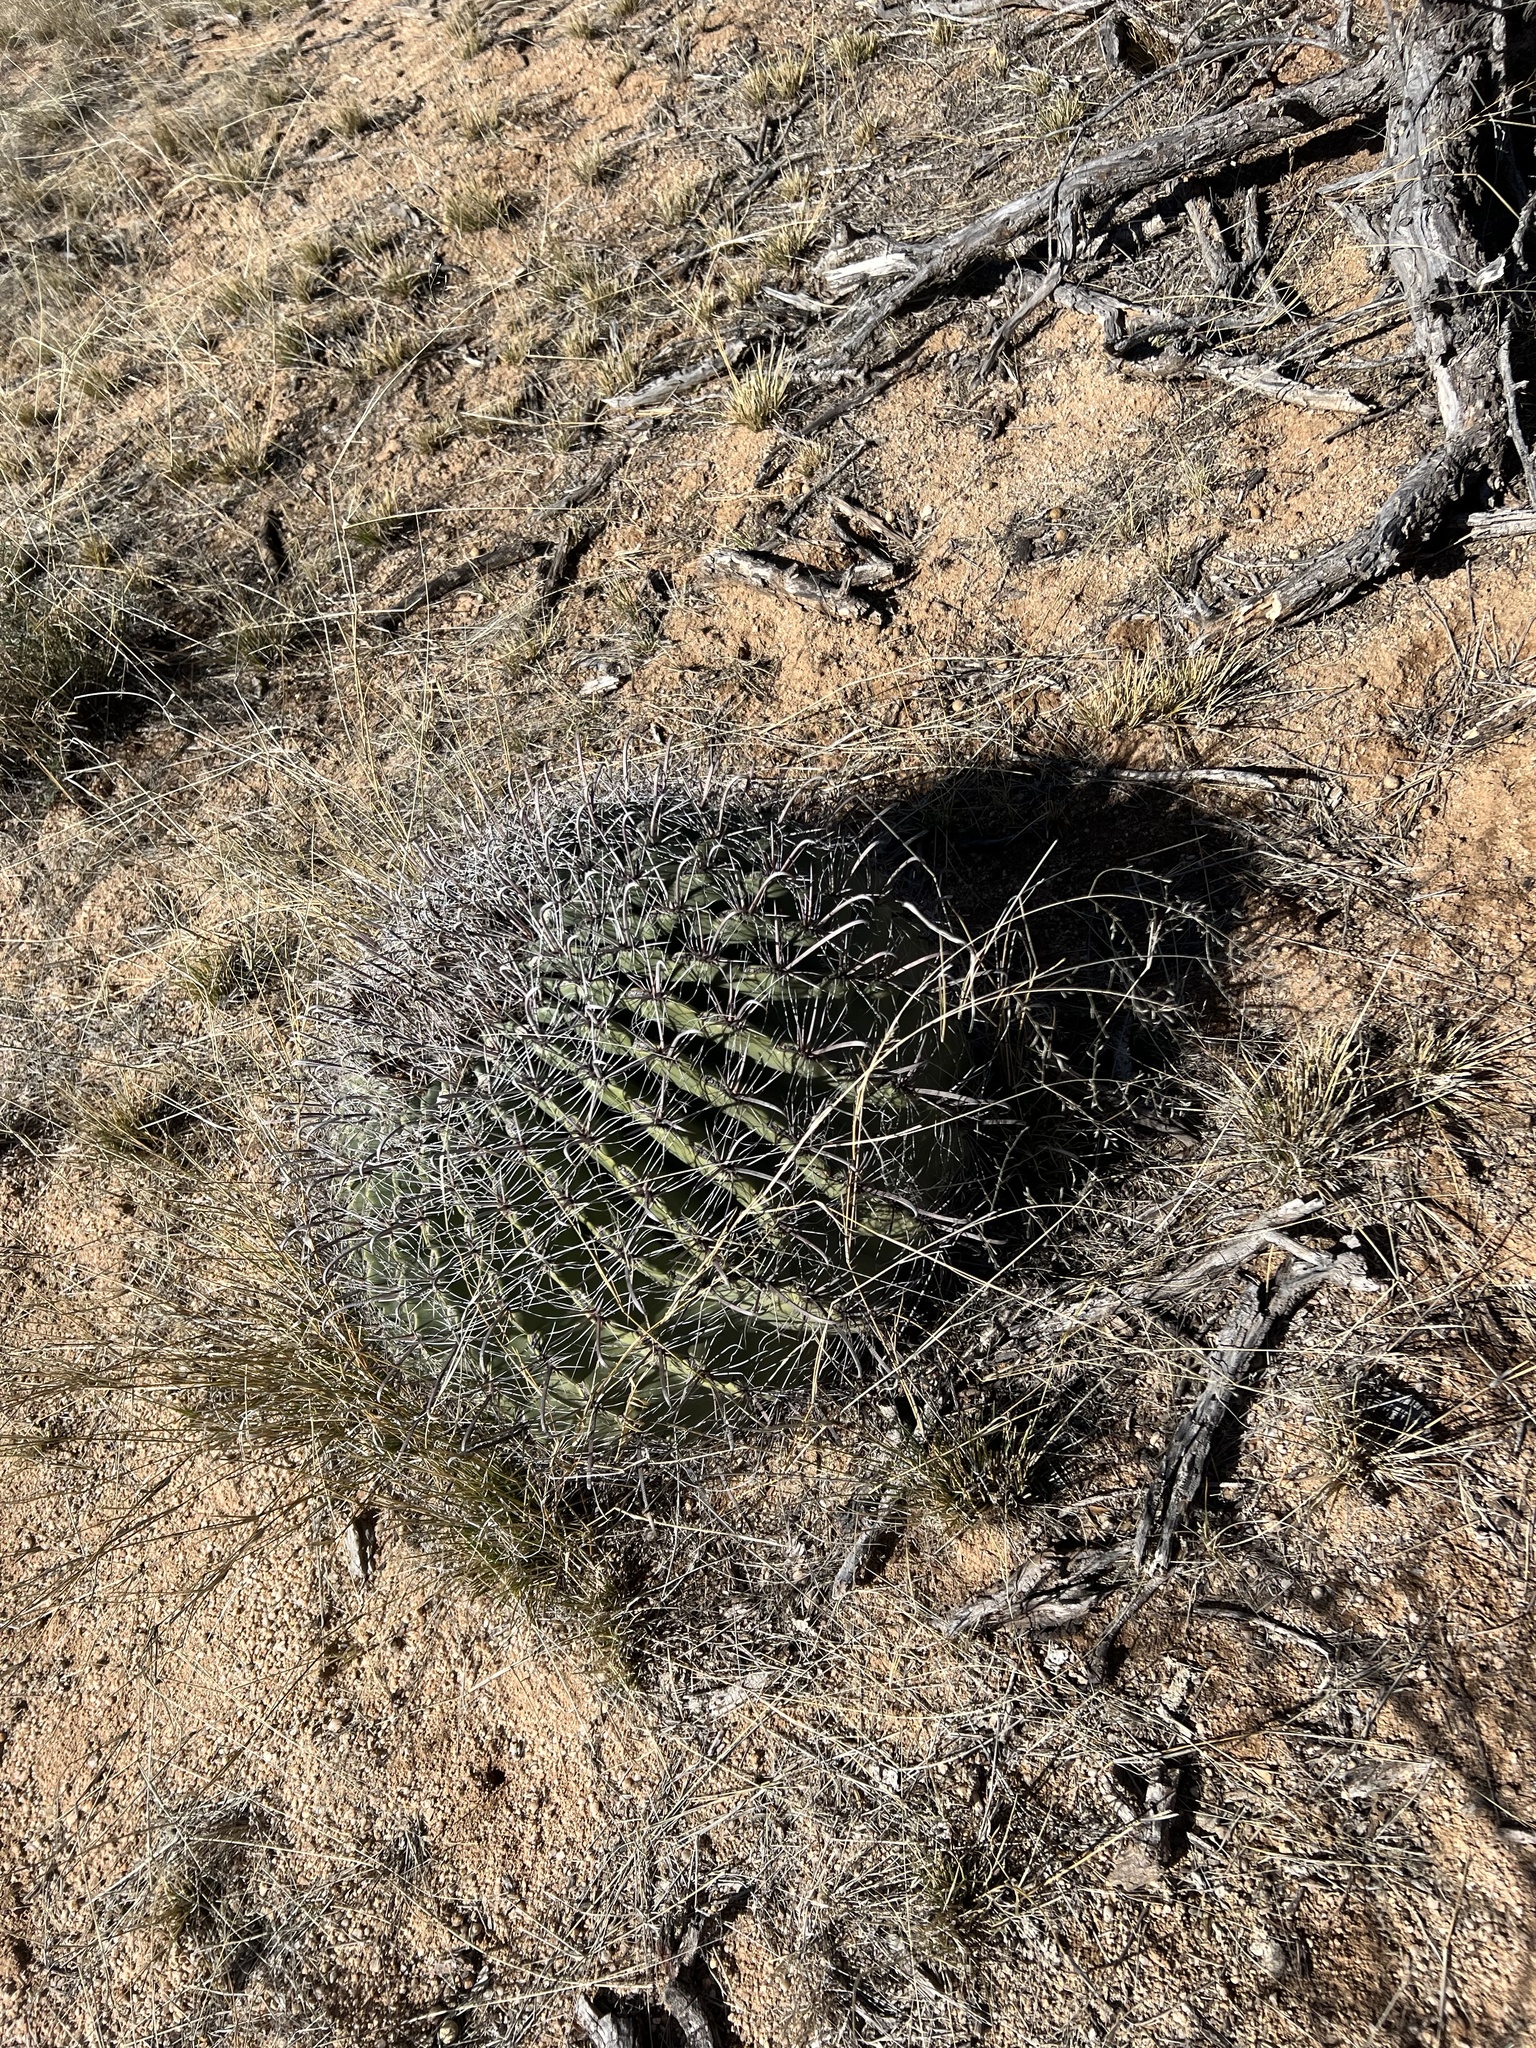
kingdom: Plantae
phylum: Tracheophyta
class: Magnoliopsida
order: Caryophyllales
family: Cactaceae
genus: Ferocactus
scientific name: Ferocactus wislizeni
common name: Candy barrel cactus
